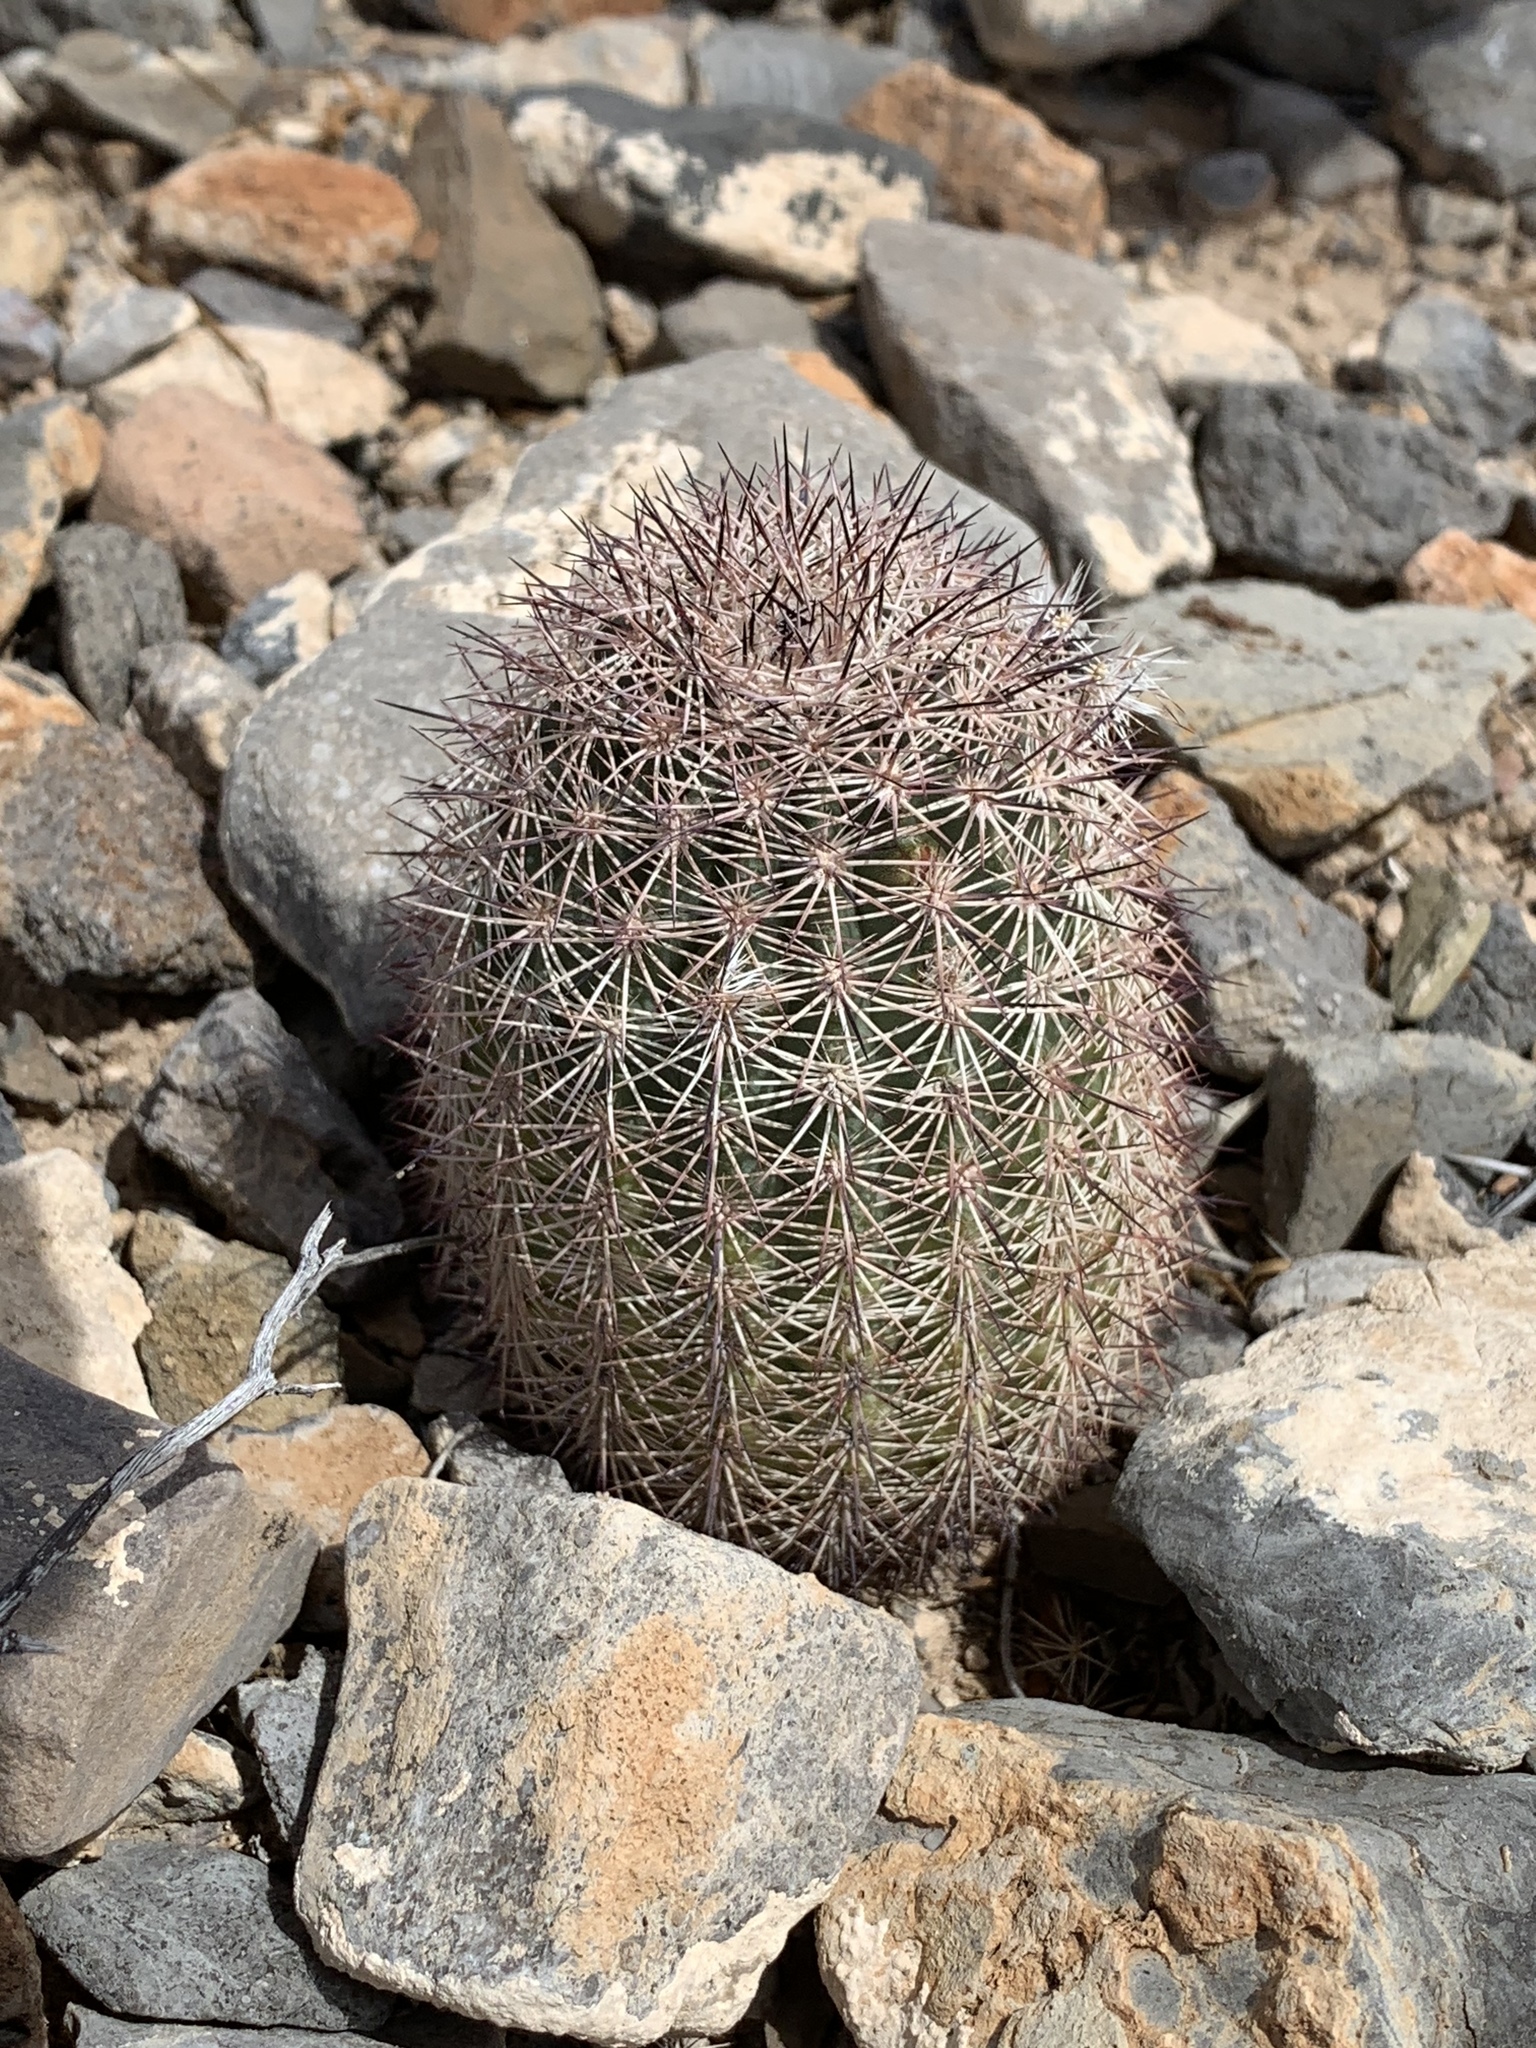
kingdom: Plantae
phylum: Tracheophyta
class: Magnoliopsida
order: Caryophyllales
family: Cactaceae
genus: Echinocereus
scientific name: Echinocereus dasyacanthus
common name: Spiny hedgehog cactus
